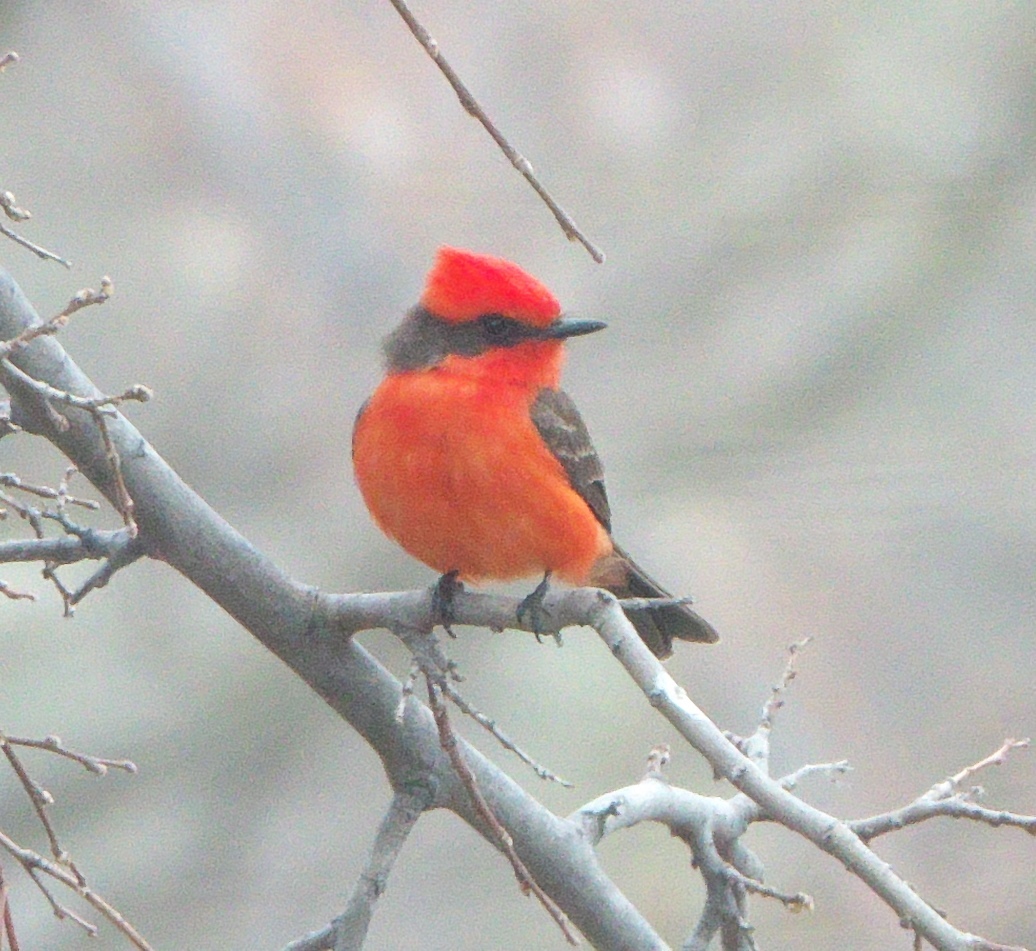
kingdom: Animalia
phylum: Chordata
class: Aves
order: Passeriformes
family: Tyrannidae
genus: Pyrocephalus
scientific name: Pyrocephalus rubinus
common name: Vermilion flycatcher
